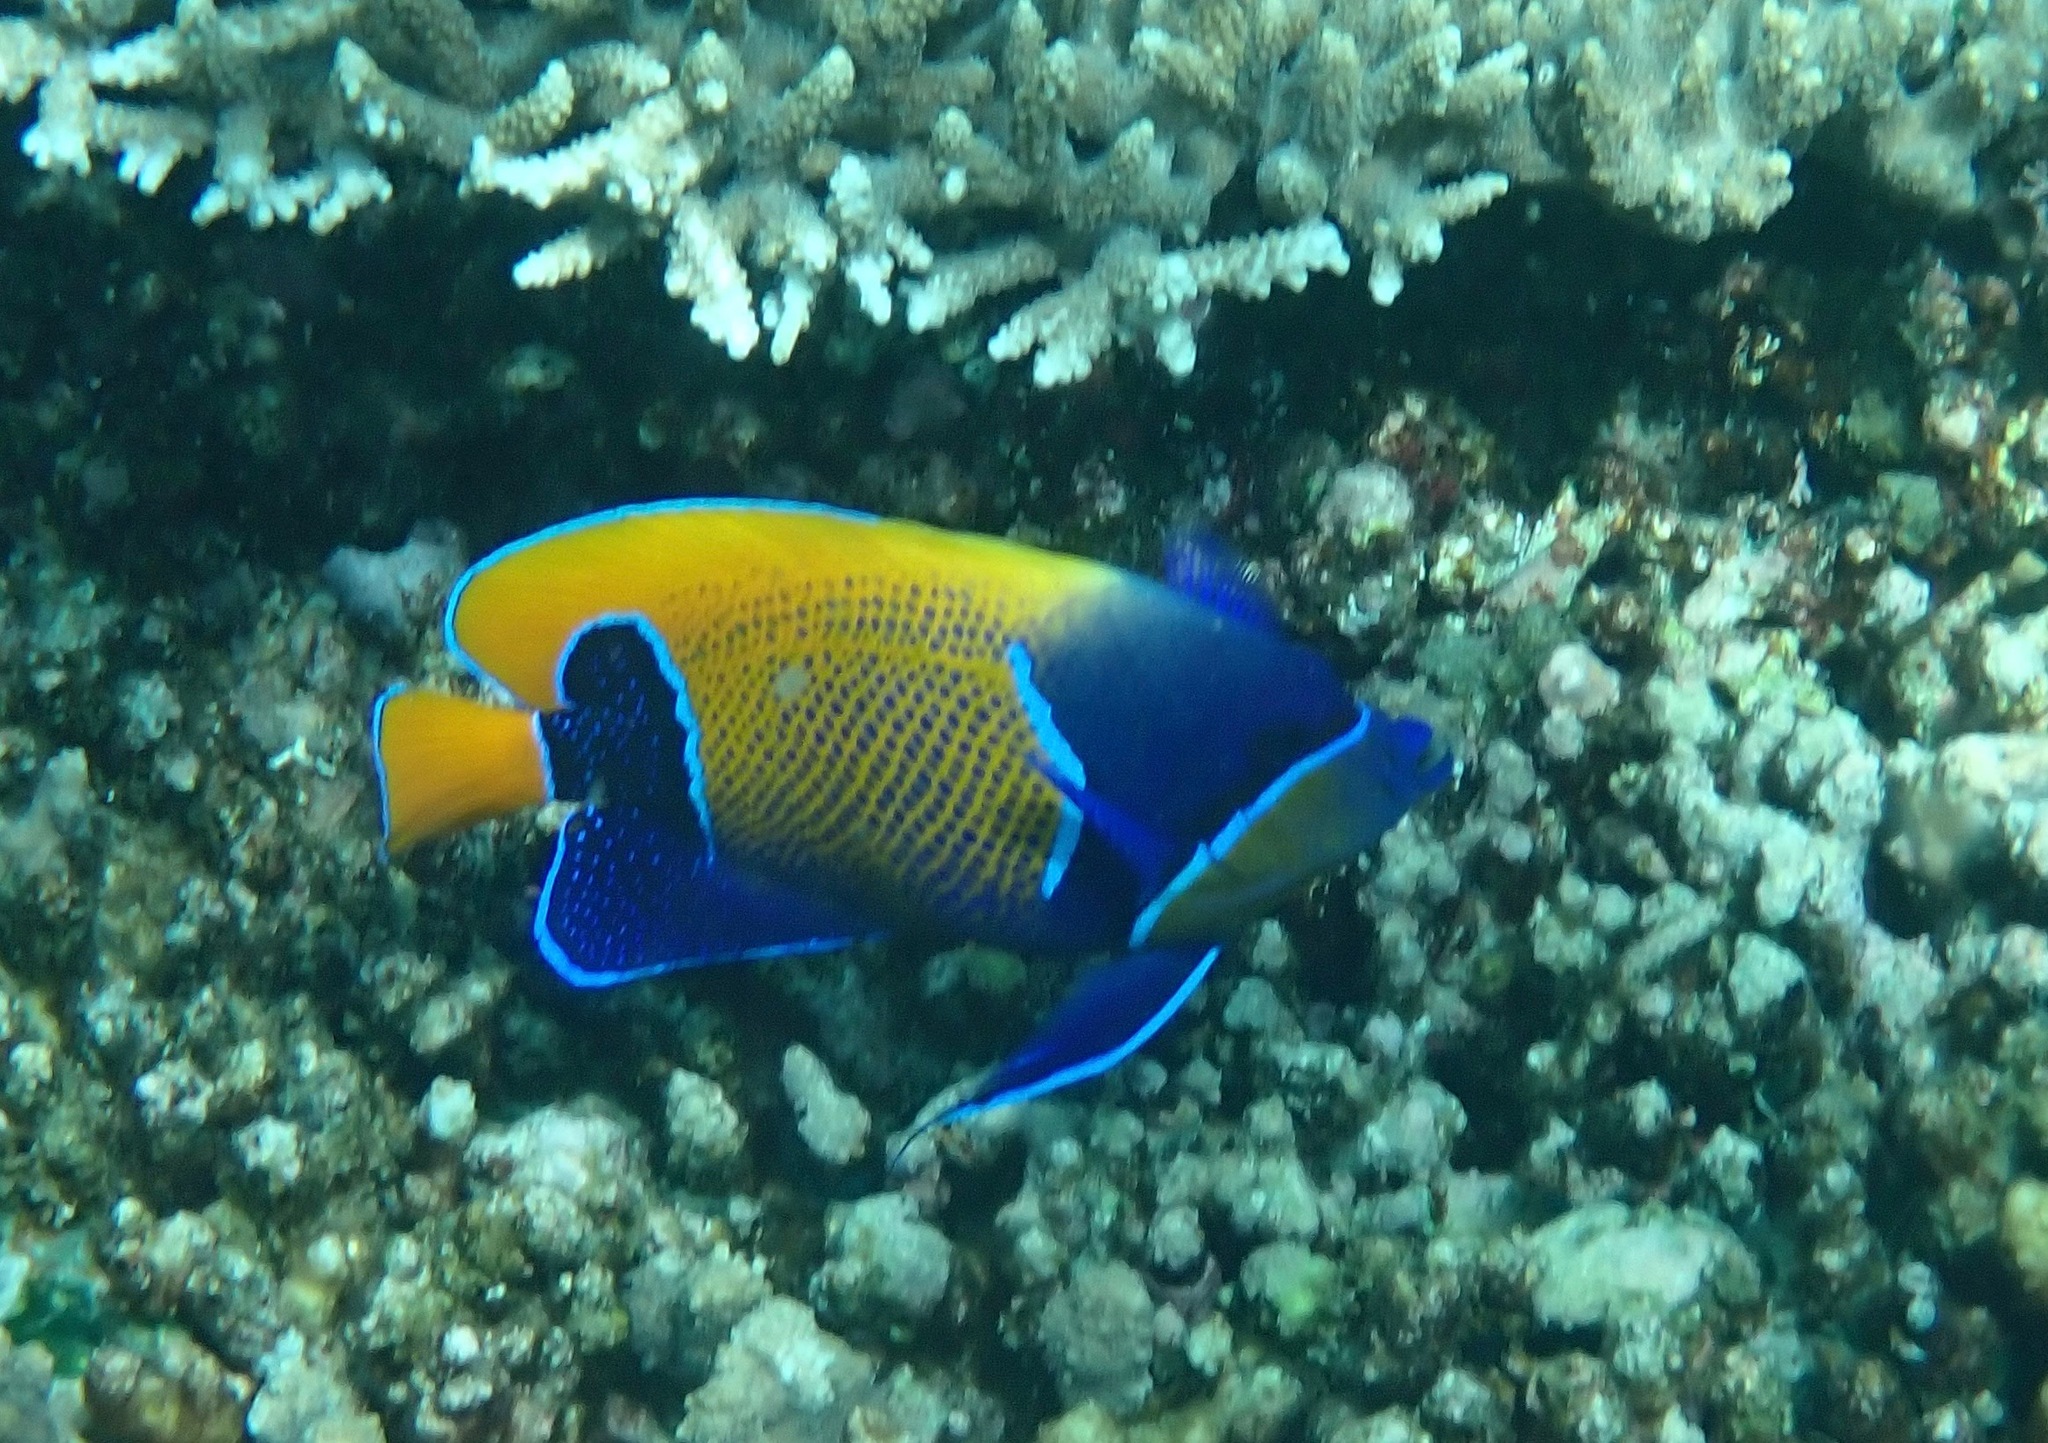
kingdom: Animalia
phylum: Chordata
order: Perciformes
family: Pomacanthidae
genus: Pomacanthus
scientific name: Pomacanthus navarchus
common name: Blue-girdled angelfish
